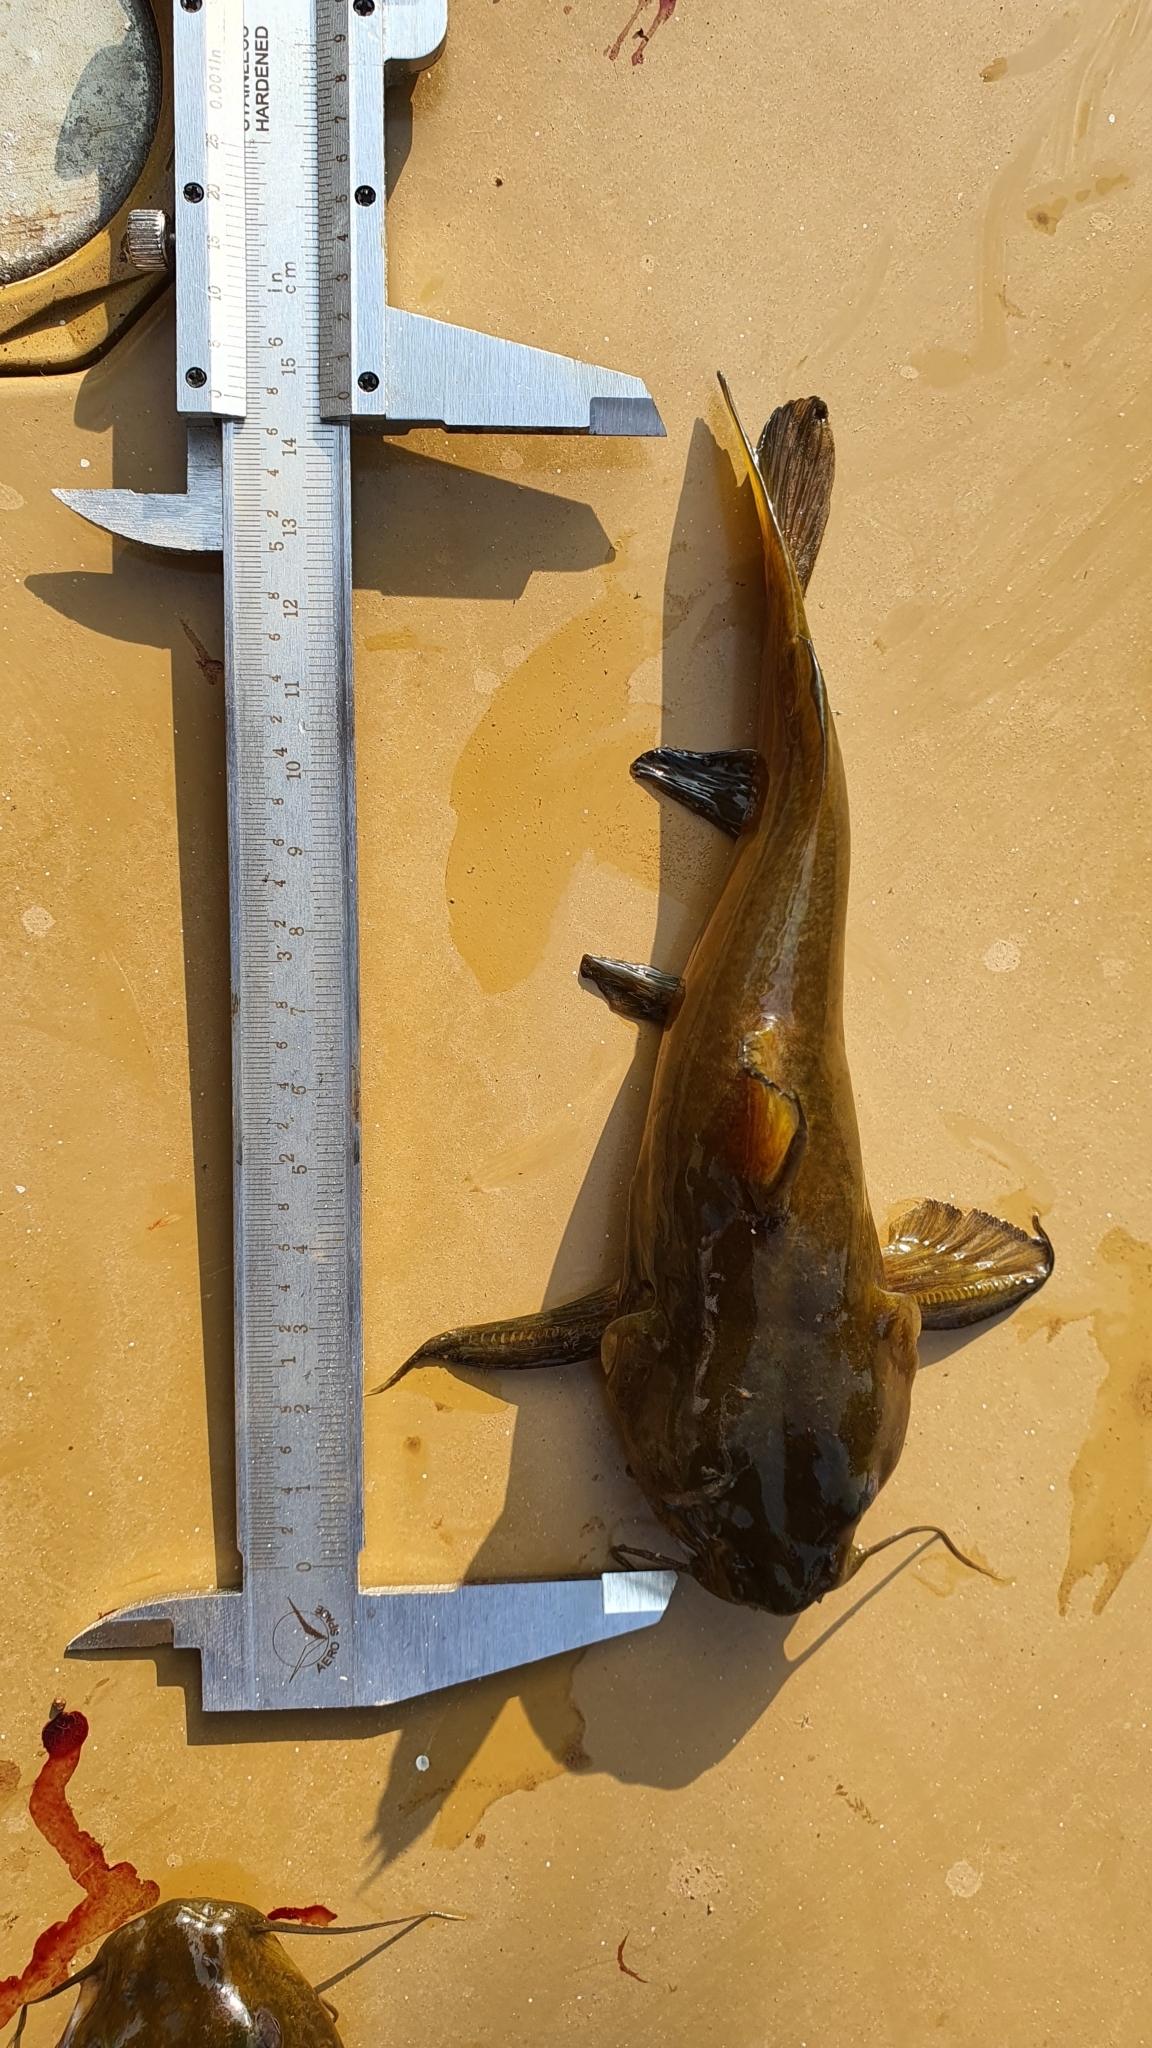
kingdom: Animalia
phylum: Chordata
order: Siluriformes
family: Bagridae
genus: Rita
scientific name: Rita gogra
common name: Gogra rita
